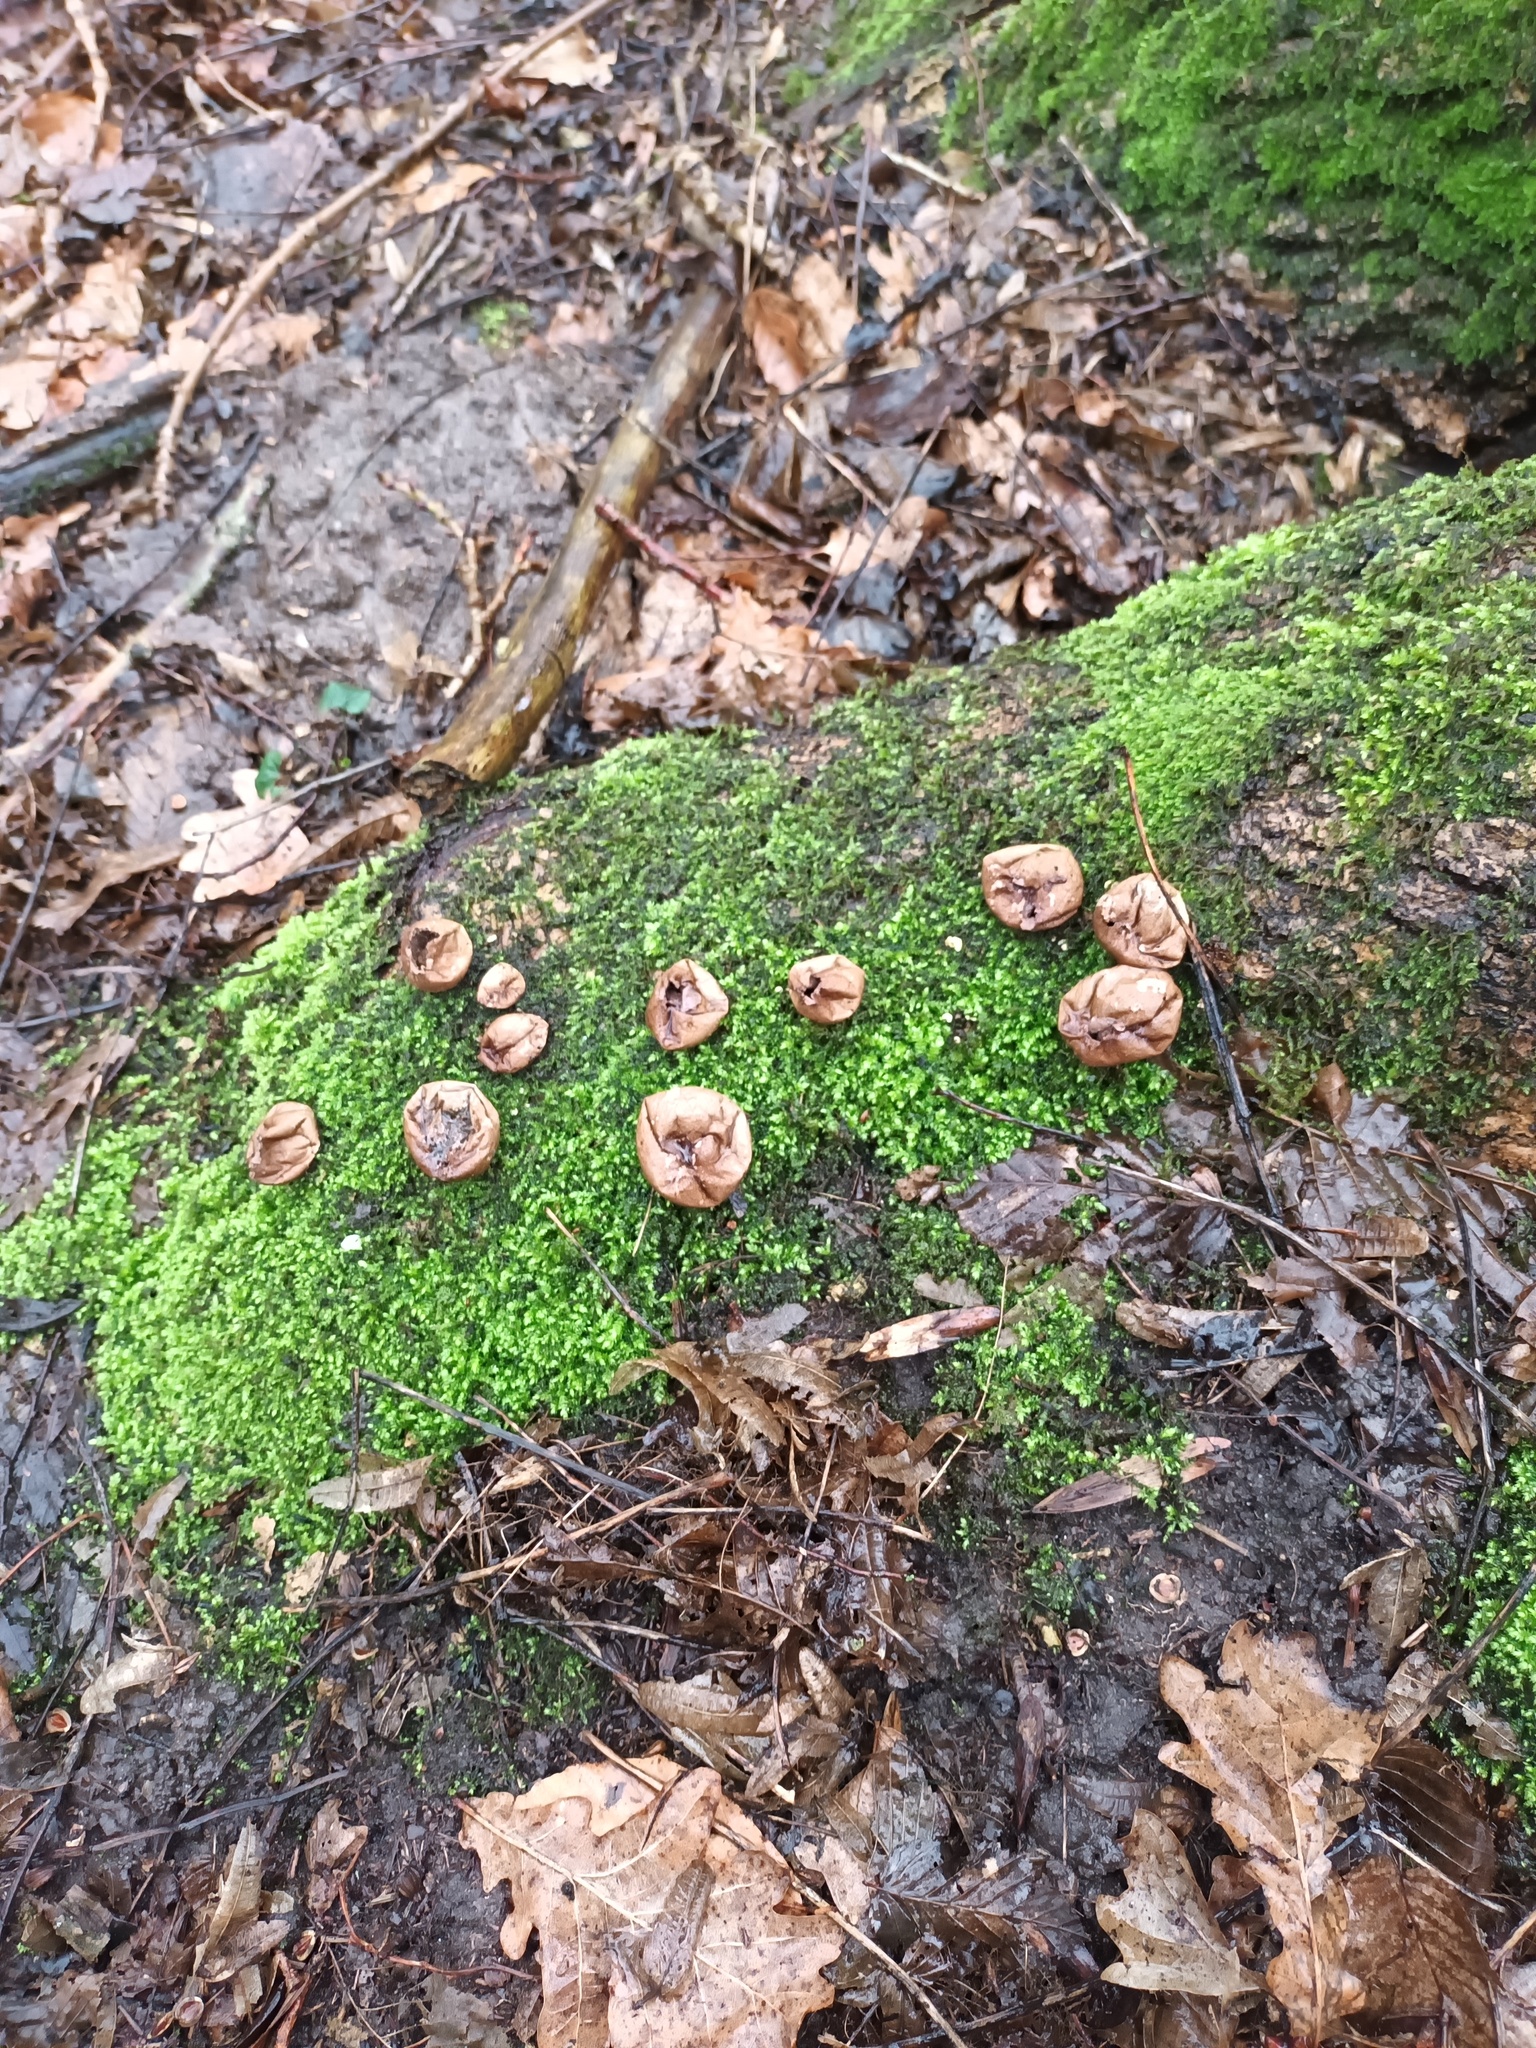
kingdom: Fungi
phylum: Basidiomycota
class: Agaricomycetes
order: Agaricales
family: Lycoperdaceae
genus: Apioperdon
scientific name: Apioperdon pyriforme
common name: Pear-shaped puffball
